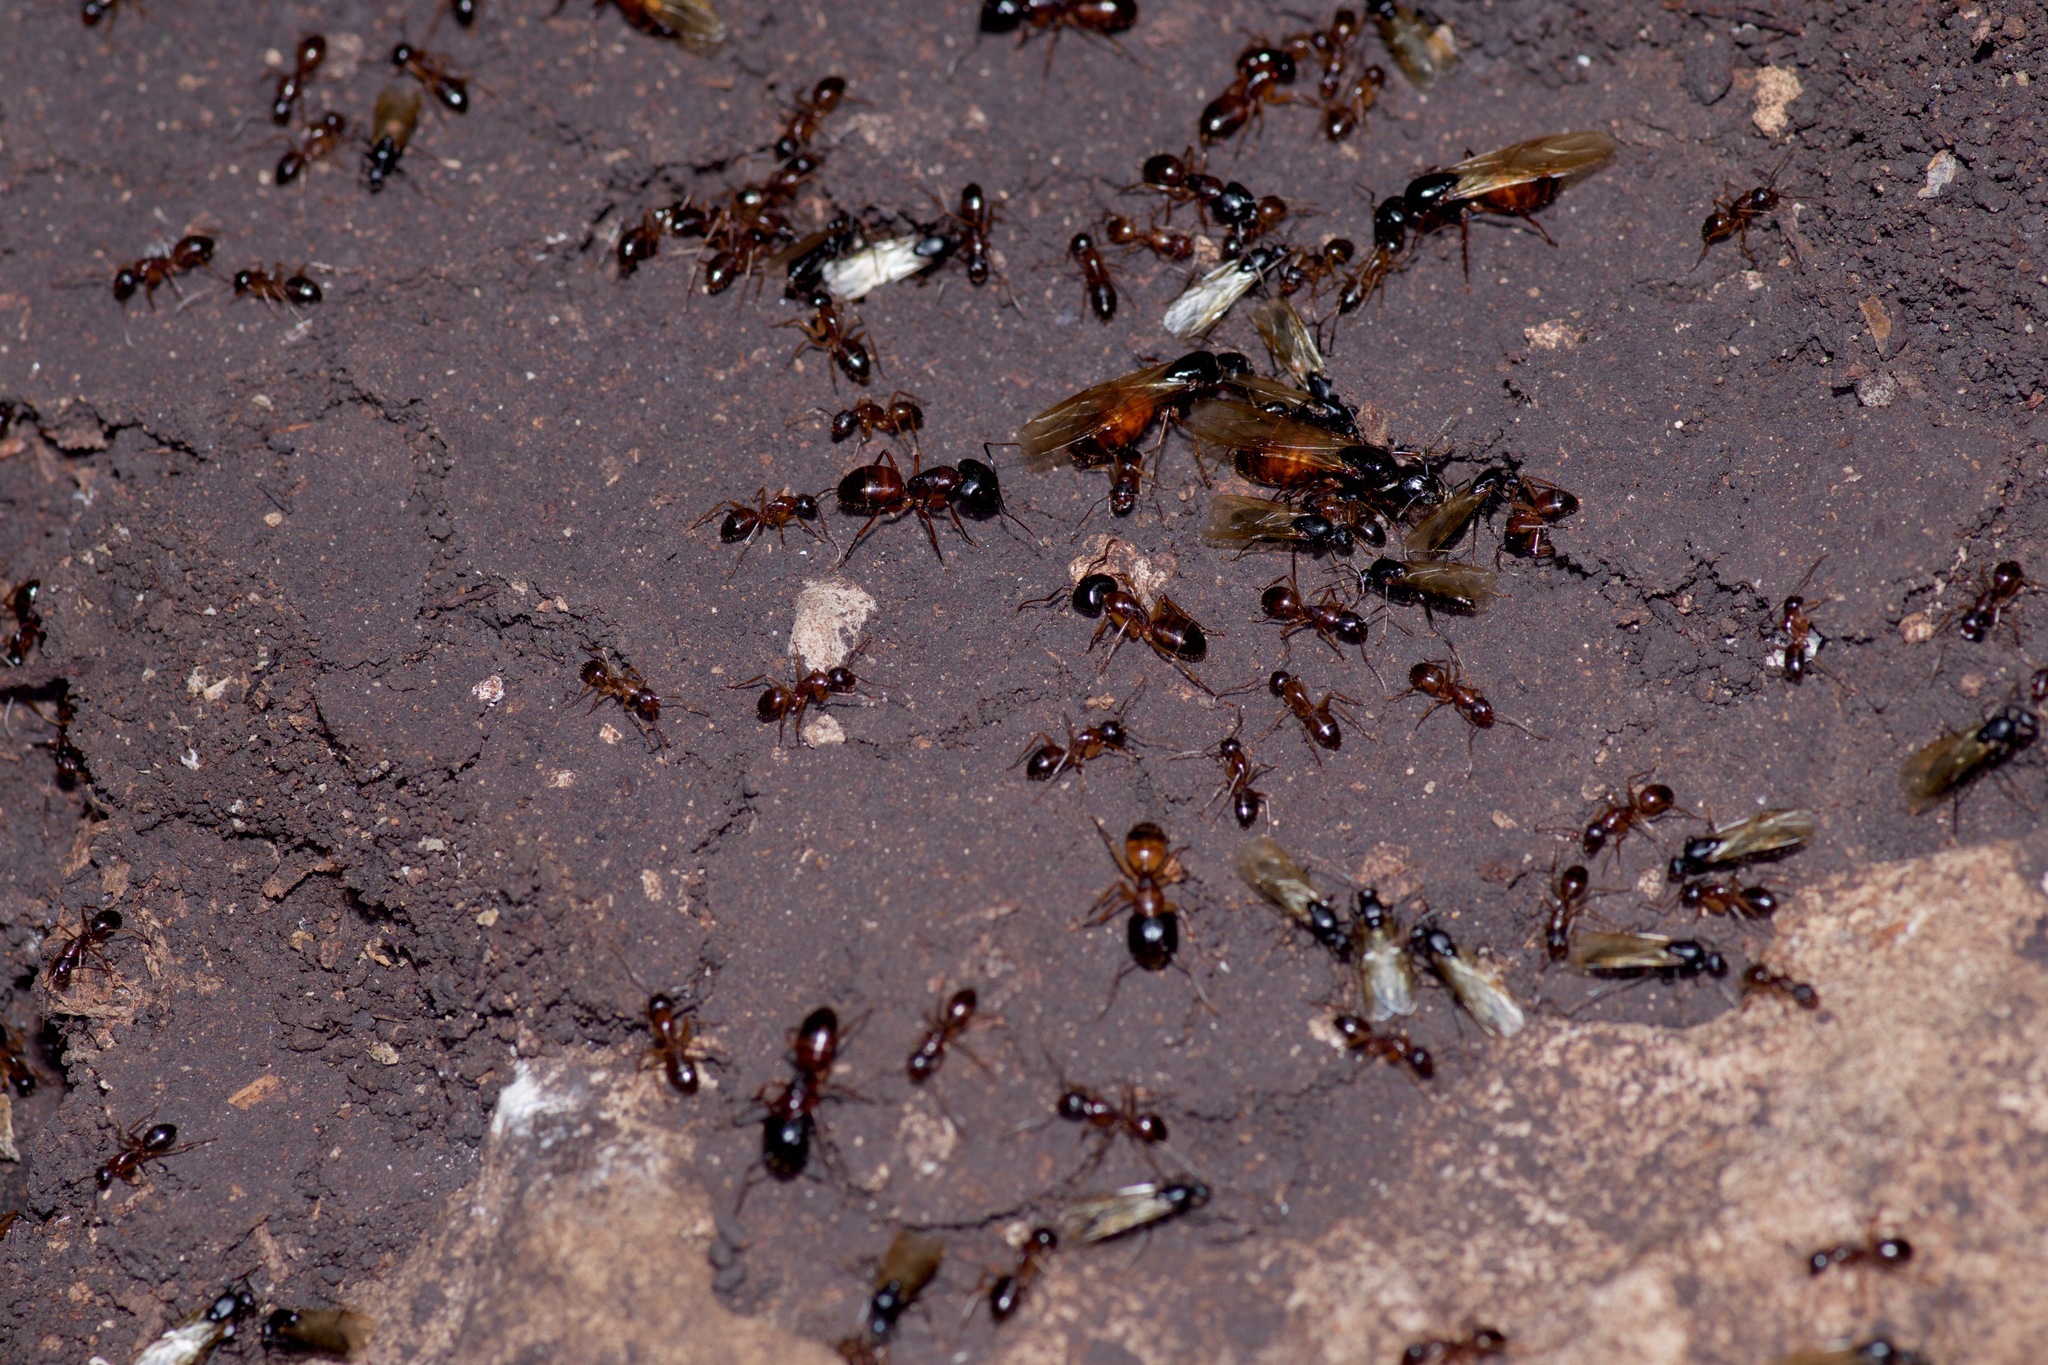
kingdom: Animalia
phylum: Arthropoda
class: Insecta
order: Hymenoptera
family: Formicidae
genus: Camponotus
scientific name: Camponotus sansabeanus
